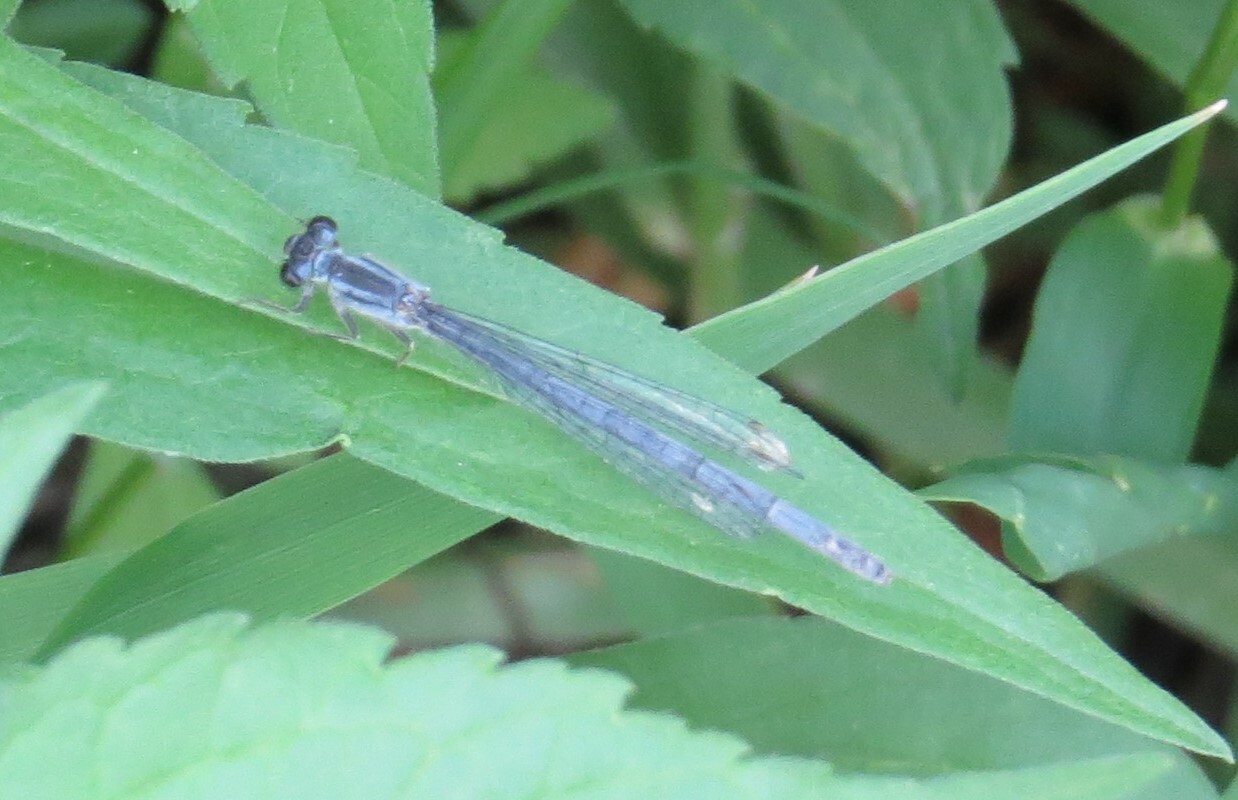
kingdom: Animalia
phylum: Arthropoda
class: Insecta
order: Odonata
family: Coenagrionidae
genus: Ischnura
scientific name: Ischnura verticalis
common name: Eastern forktail
